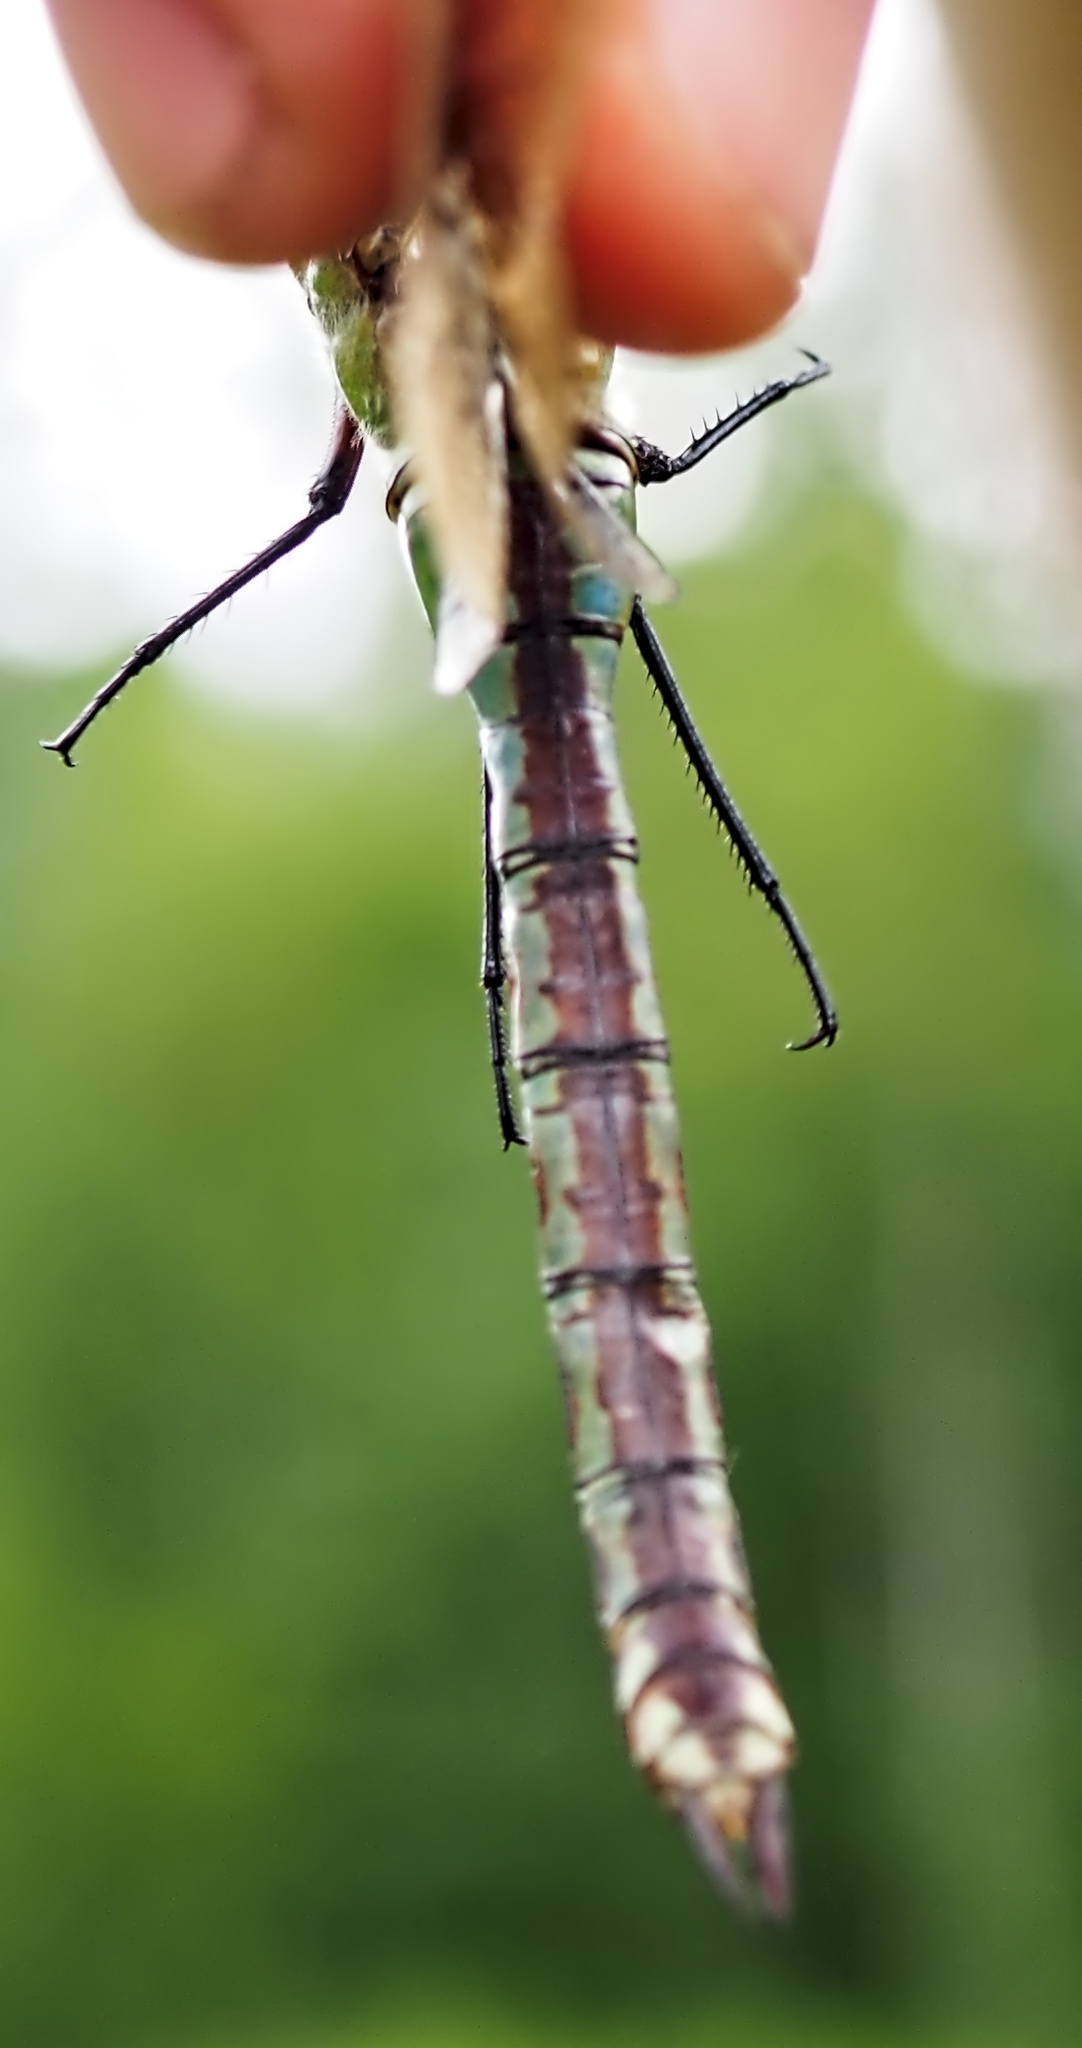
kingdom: Animalia
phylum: Arthropoda
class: Insecta
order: Odonata
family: Aeshnidae
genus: Anax
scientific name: Anax imperator
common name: Emperor dragonfly
